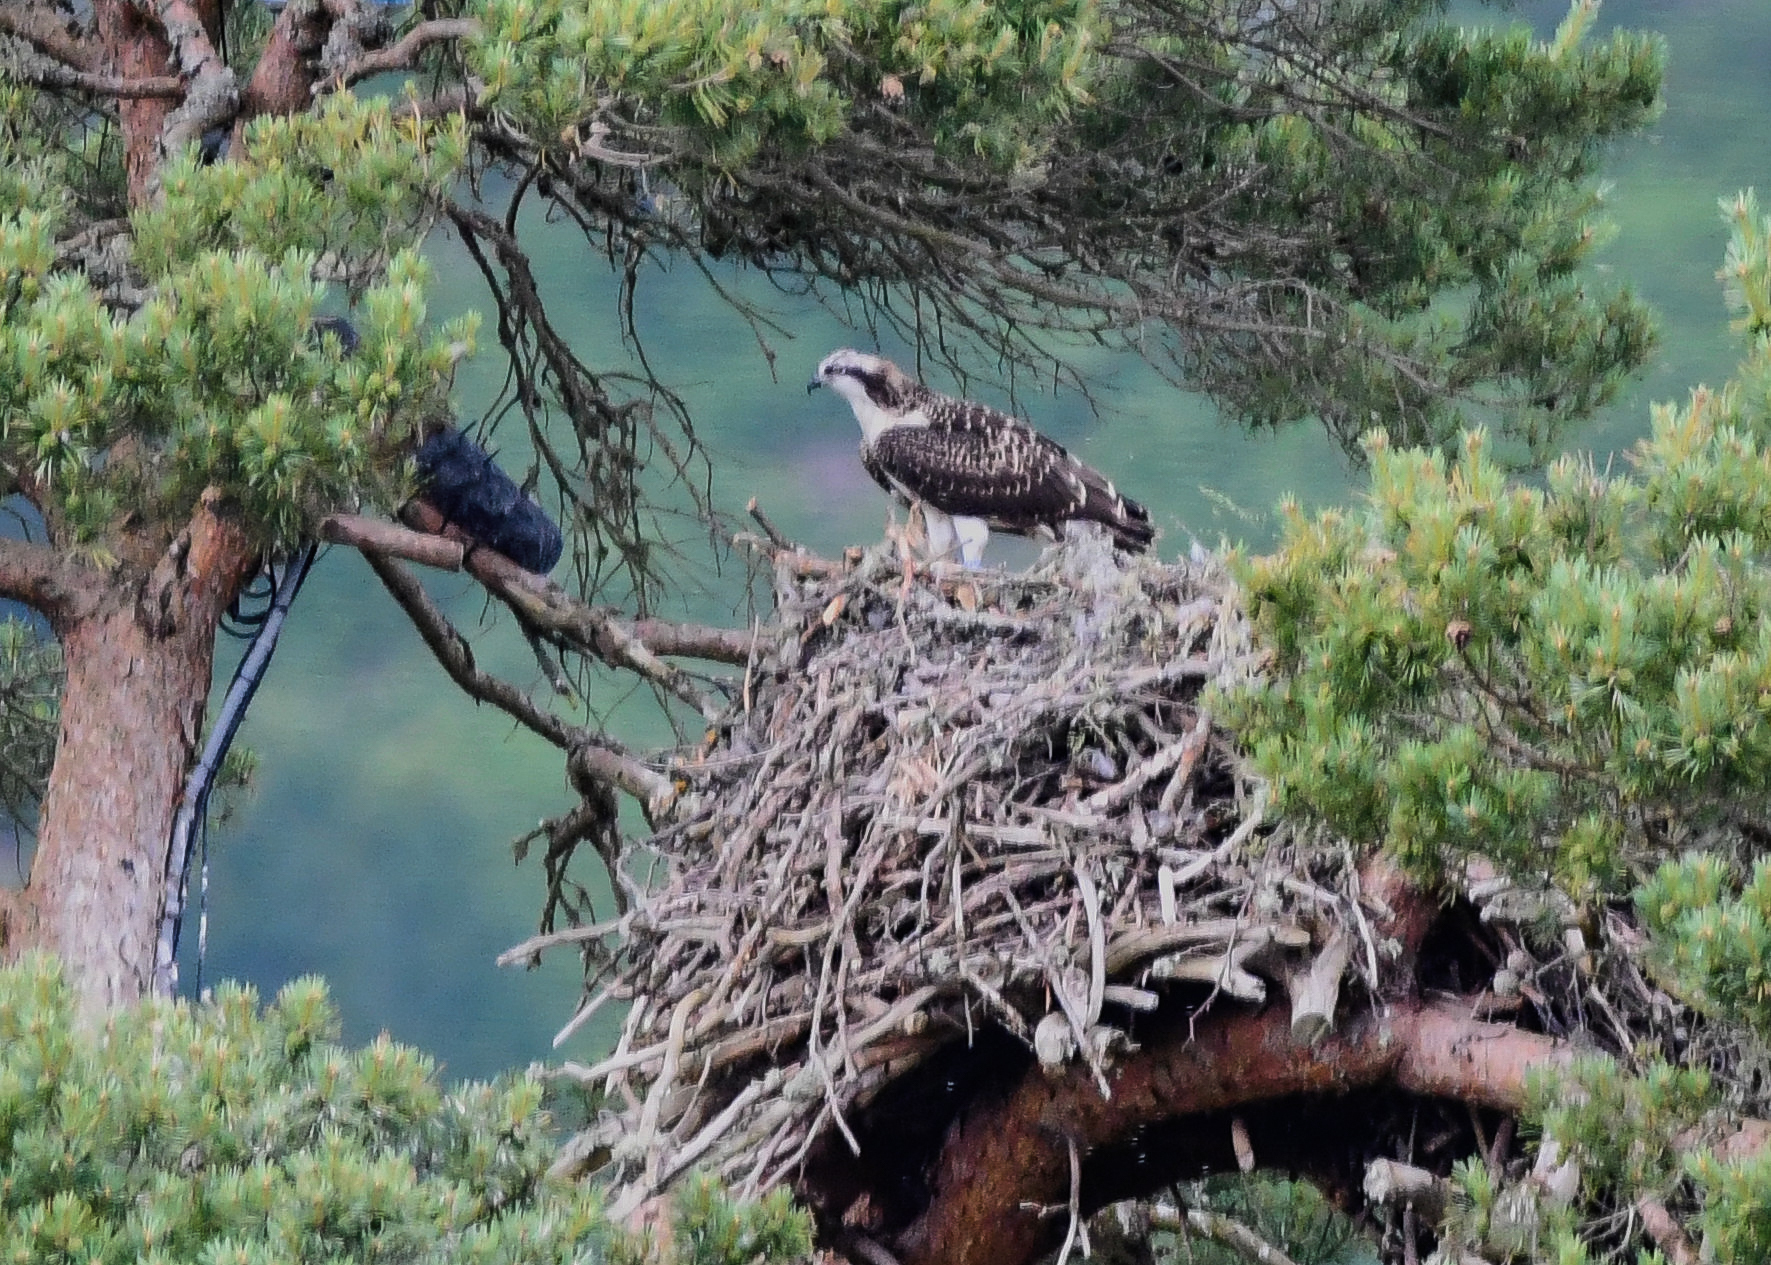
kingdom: Animalia
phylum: Chordata
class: Aves
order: Accipitriformes
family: Pandionidae
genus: Pandion
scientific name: Pandion haliaetus
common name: Osprey
